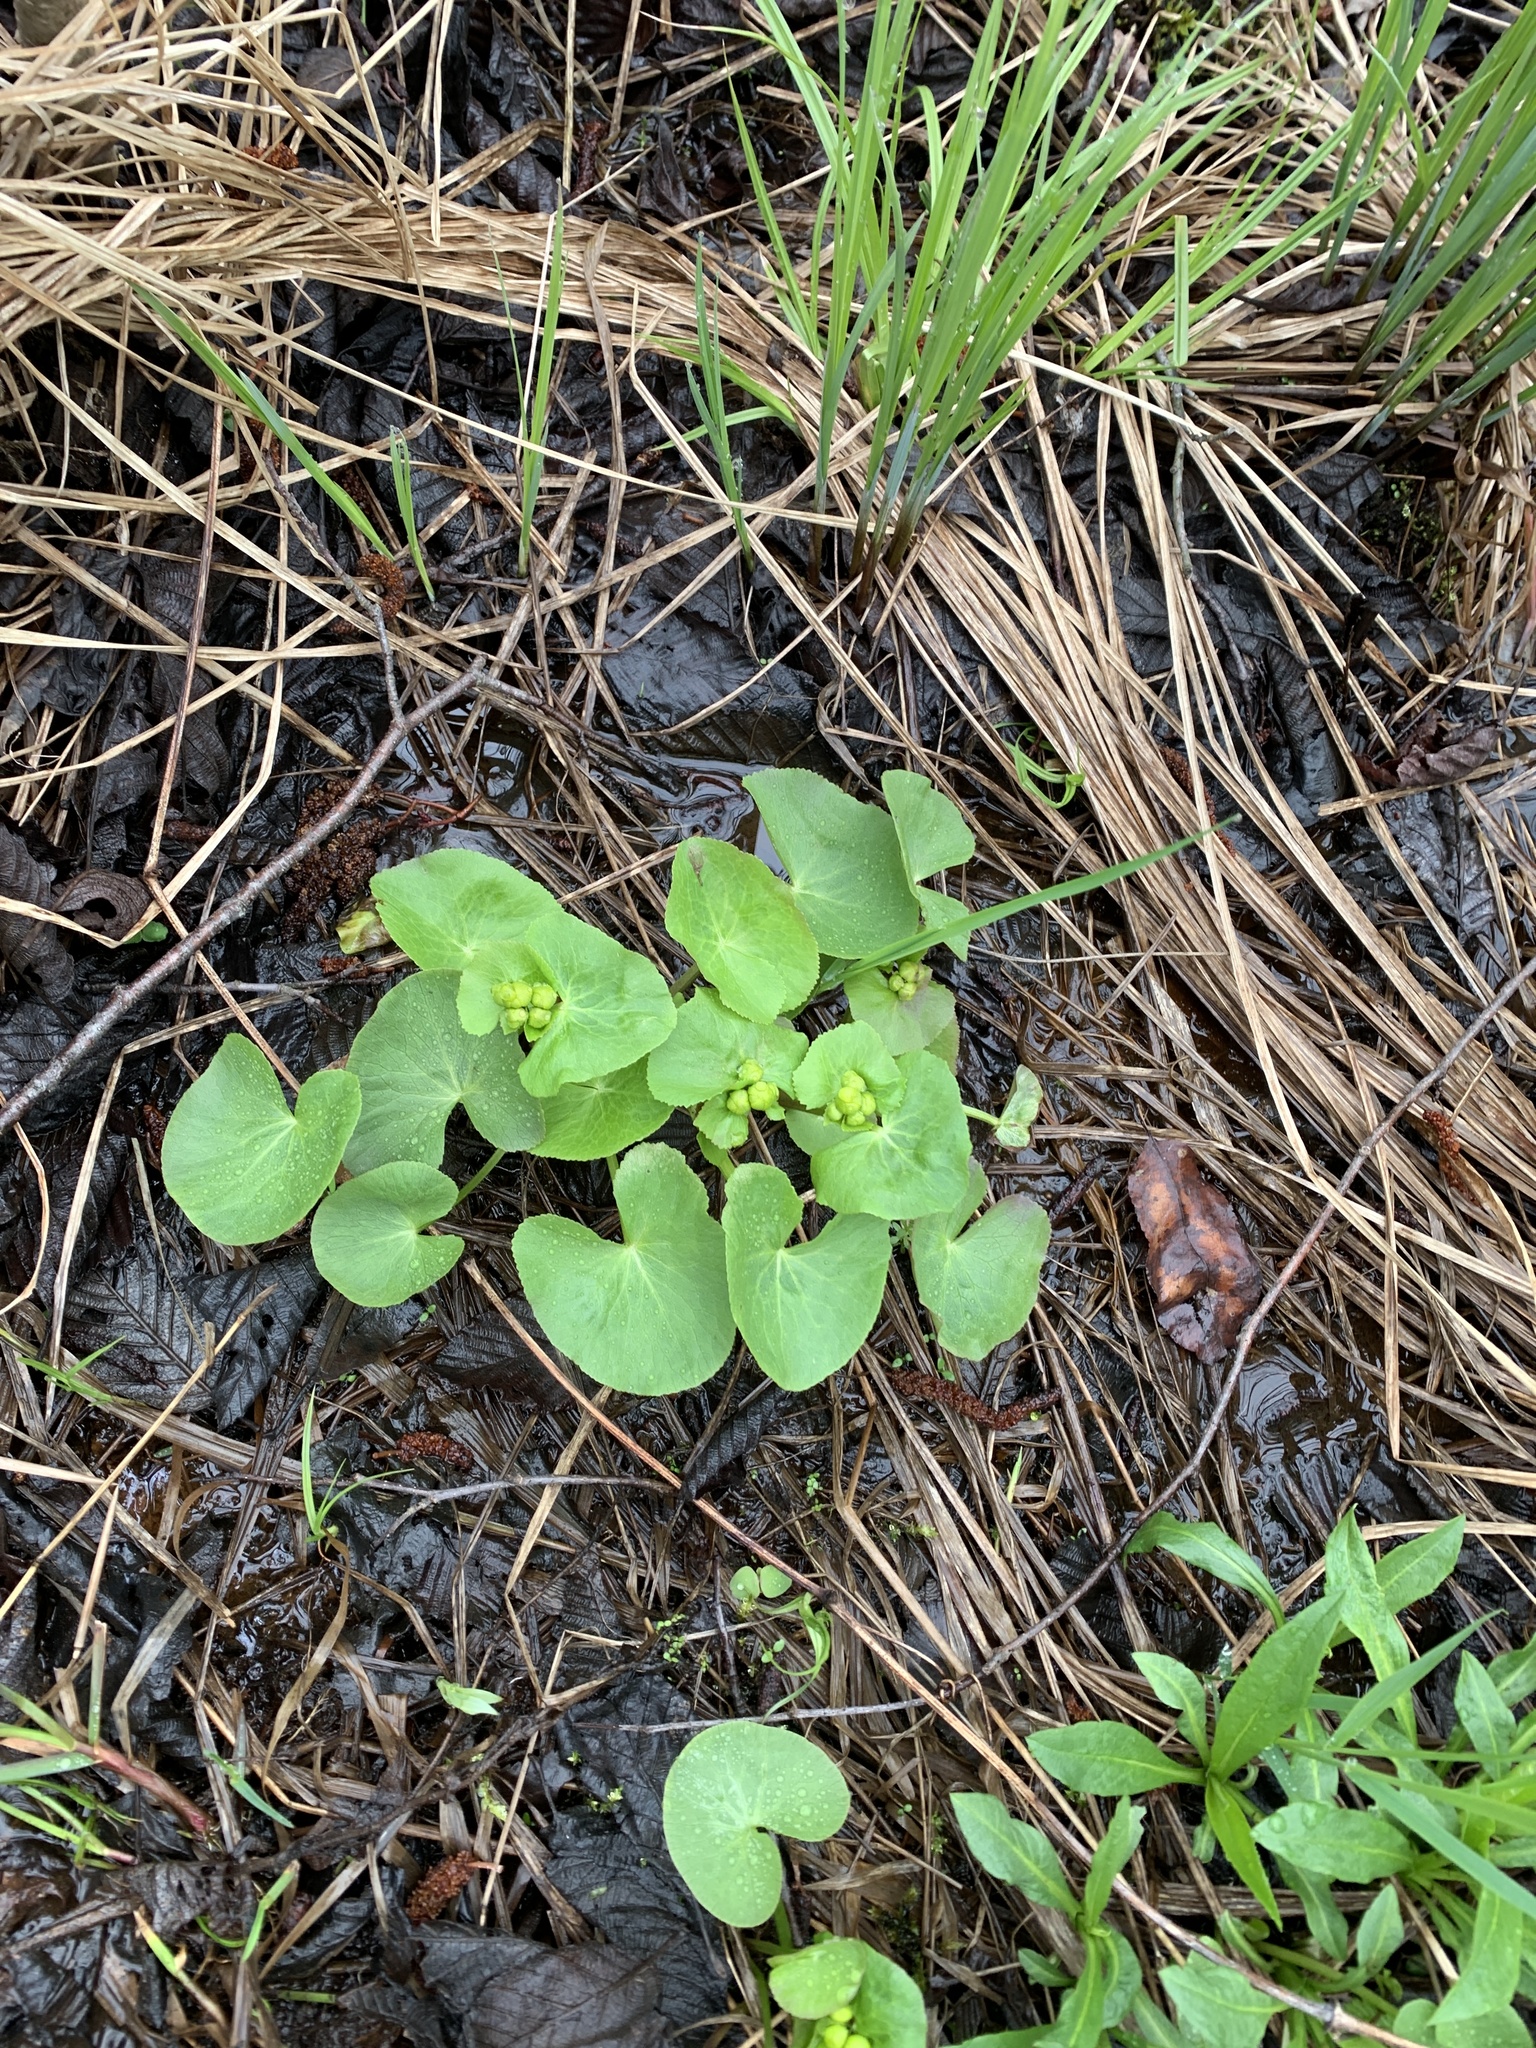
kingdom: Plantae
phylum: Tracheophyta
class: Magnoliopsida
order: Ranunculales
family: Ranunculaceae
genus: Caltha
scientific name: Caltha palustris
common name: Marsh marigold
